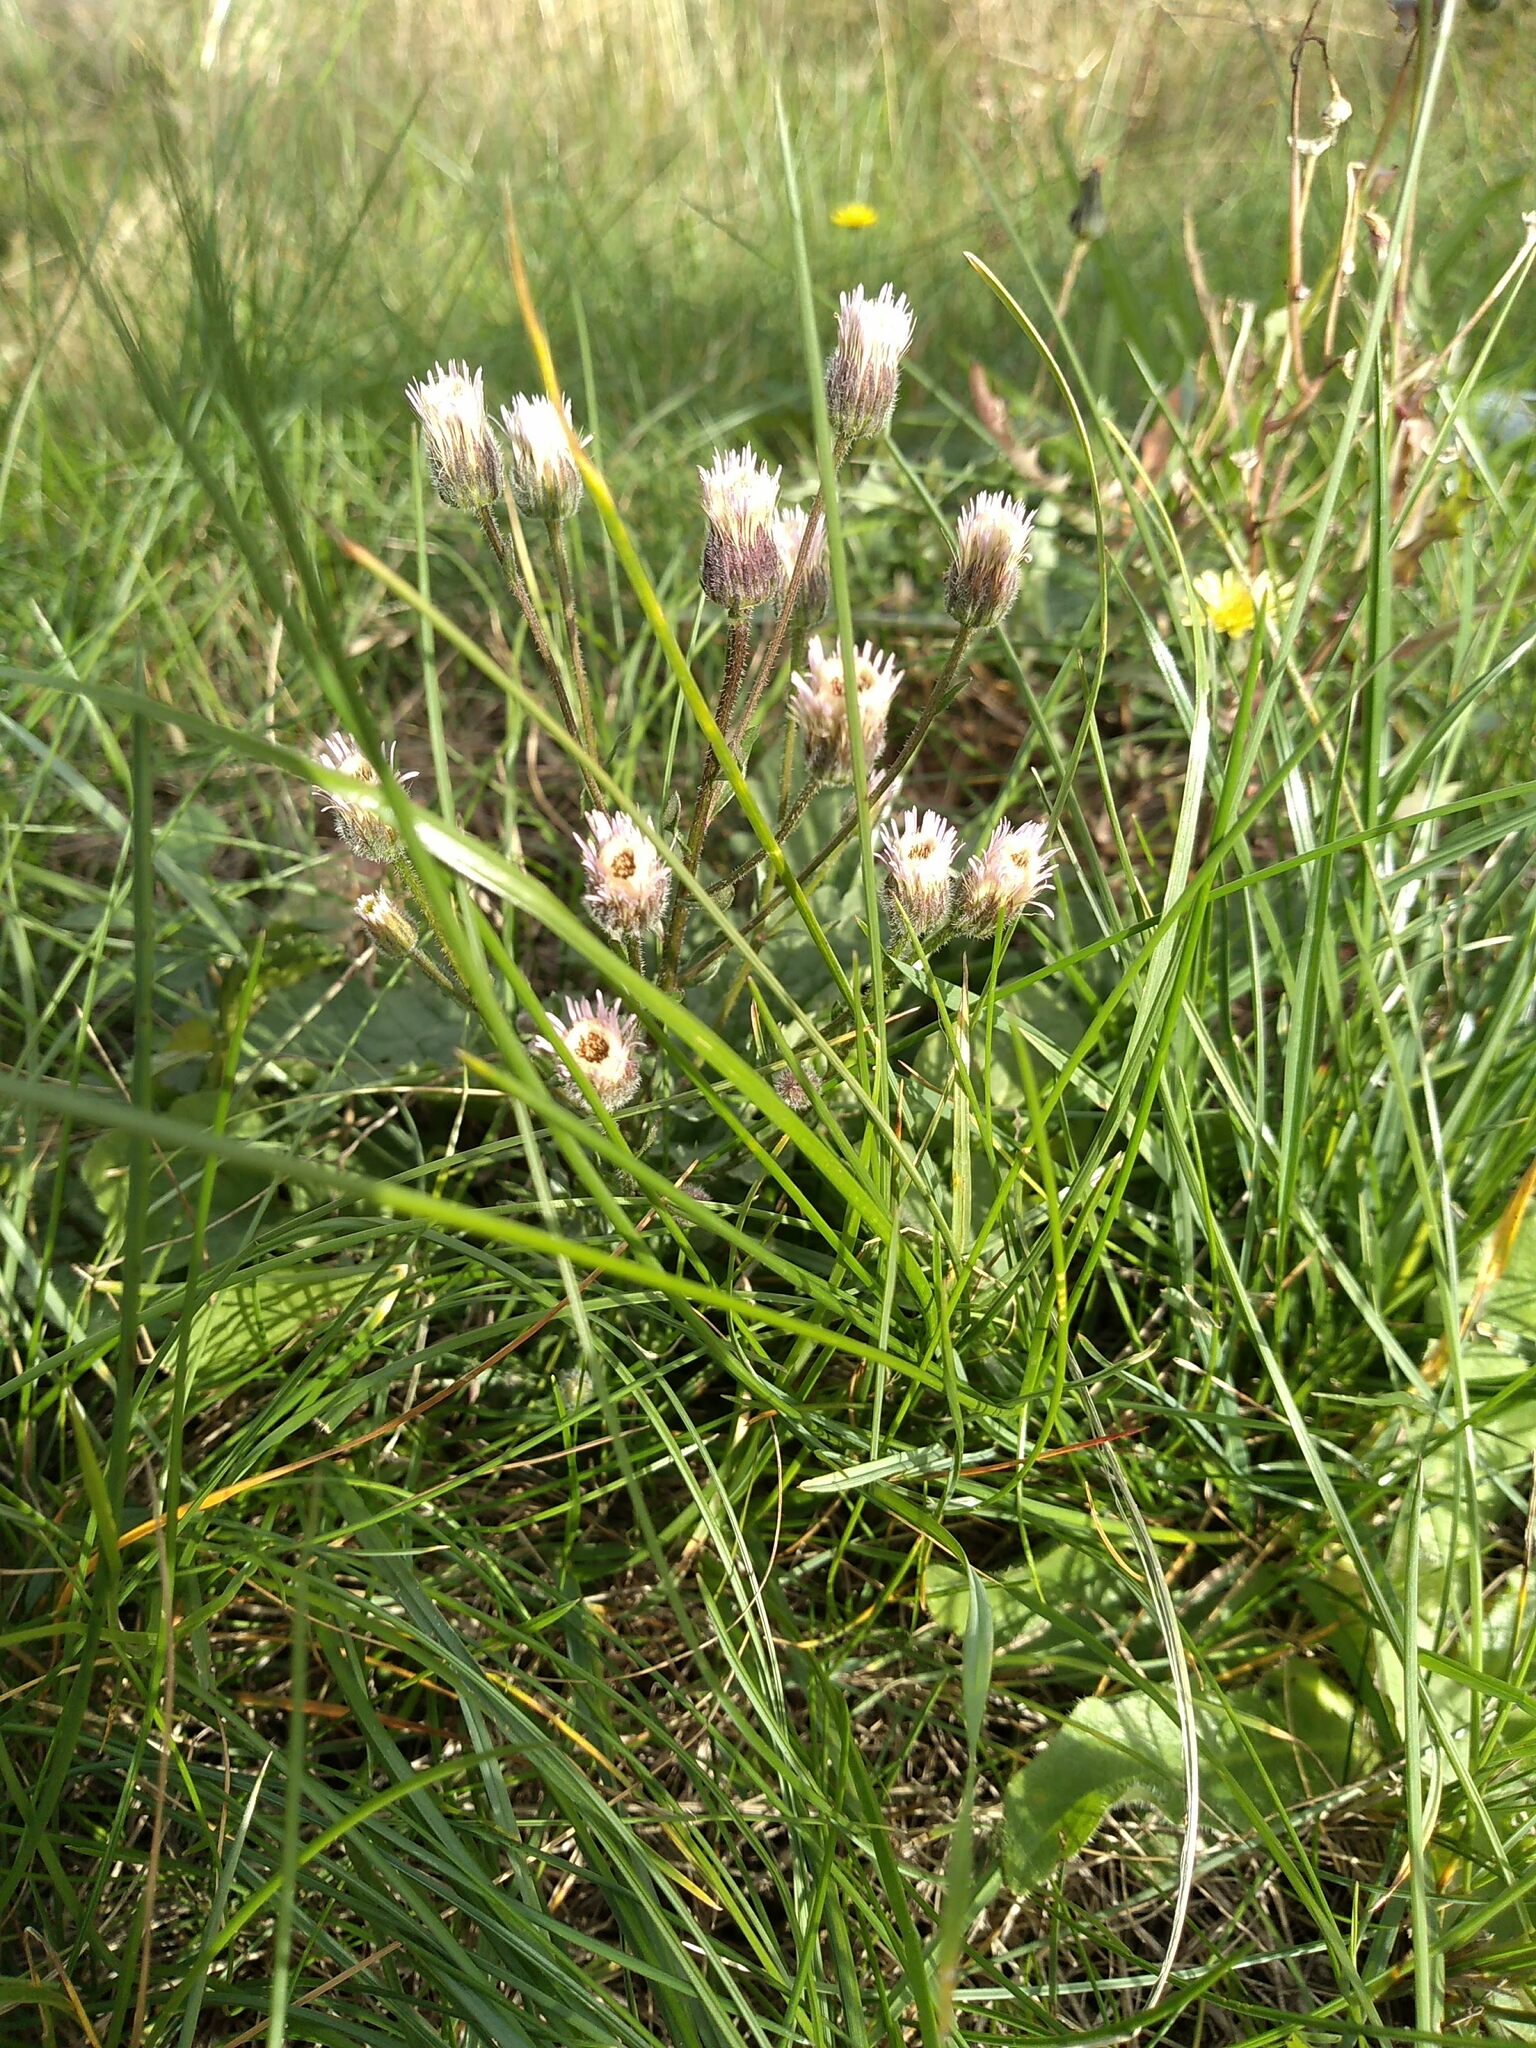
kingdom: Plantae
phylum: Tracheophyta
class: Magnoliopsida
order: Asterales
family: Asteraceae
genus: Erigeron
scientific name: Erigeron acris
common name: Blue fleabane
